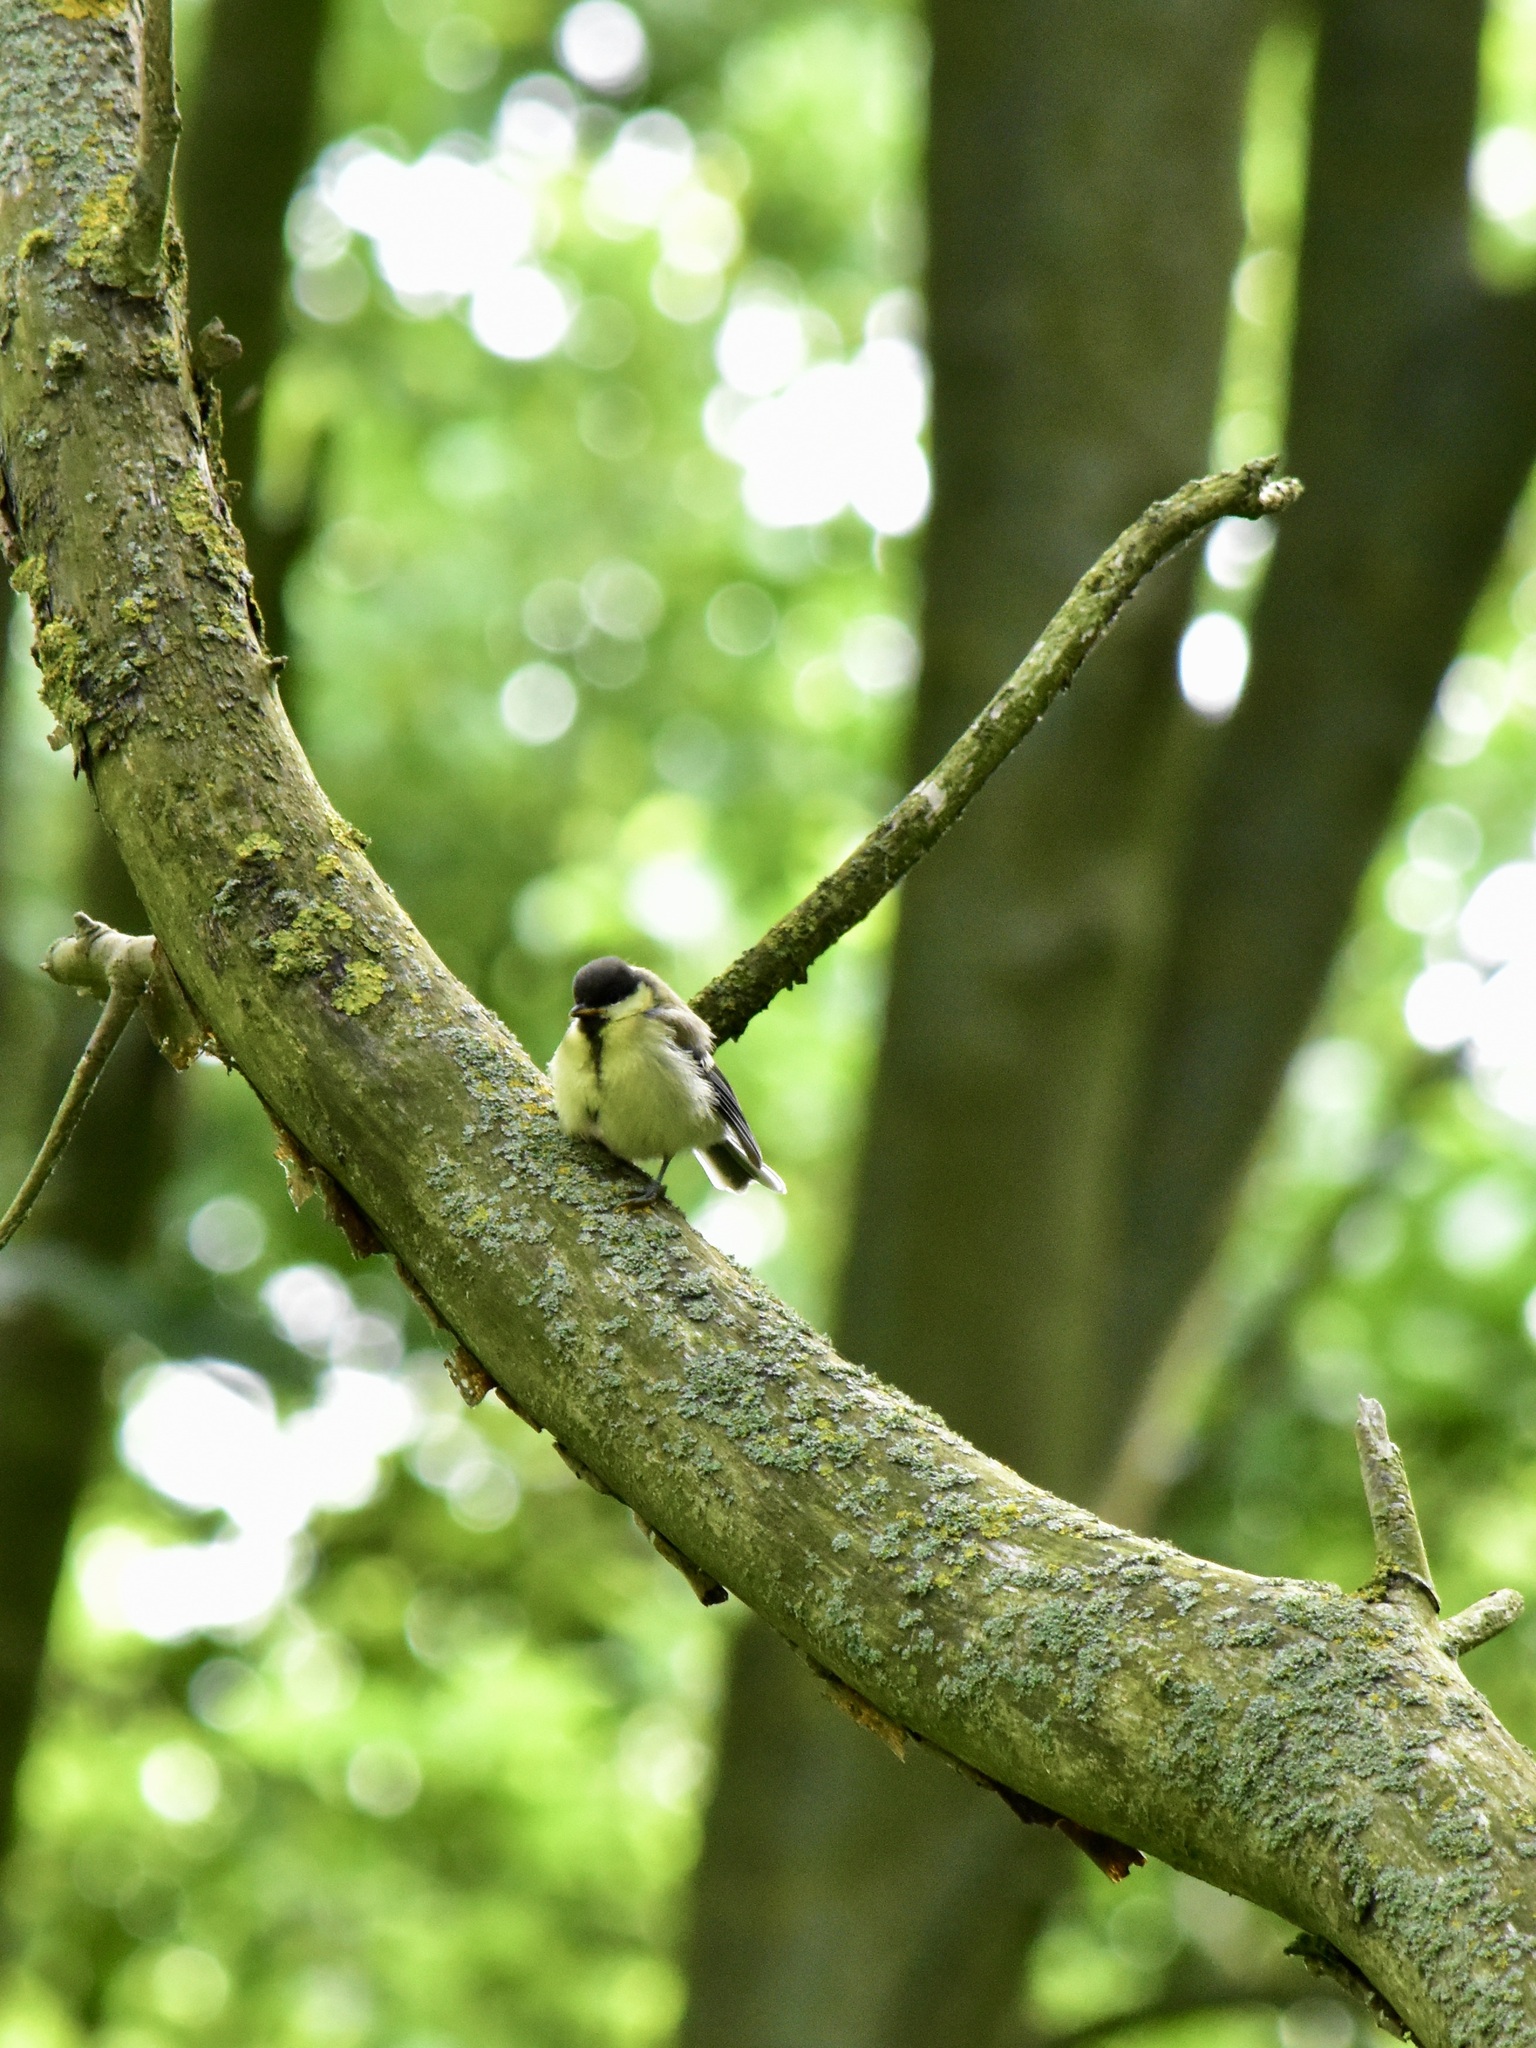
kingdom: Animalia
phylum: Chordata
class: Aves
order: Passeriformes
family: Paridae
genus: Parus
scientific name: Parus major
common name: Great tit
